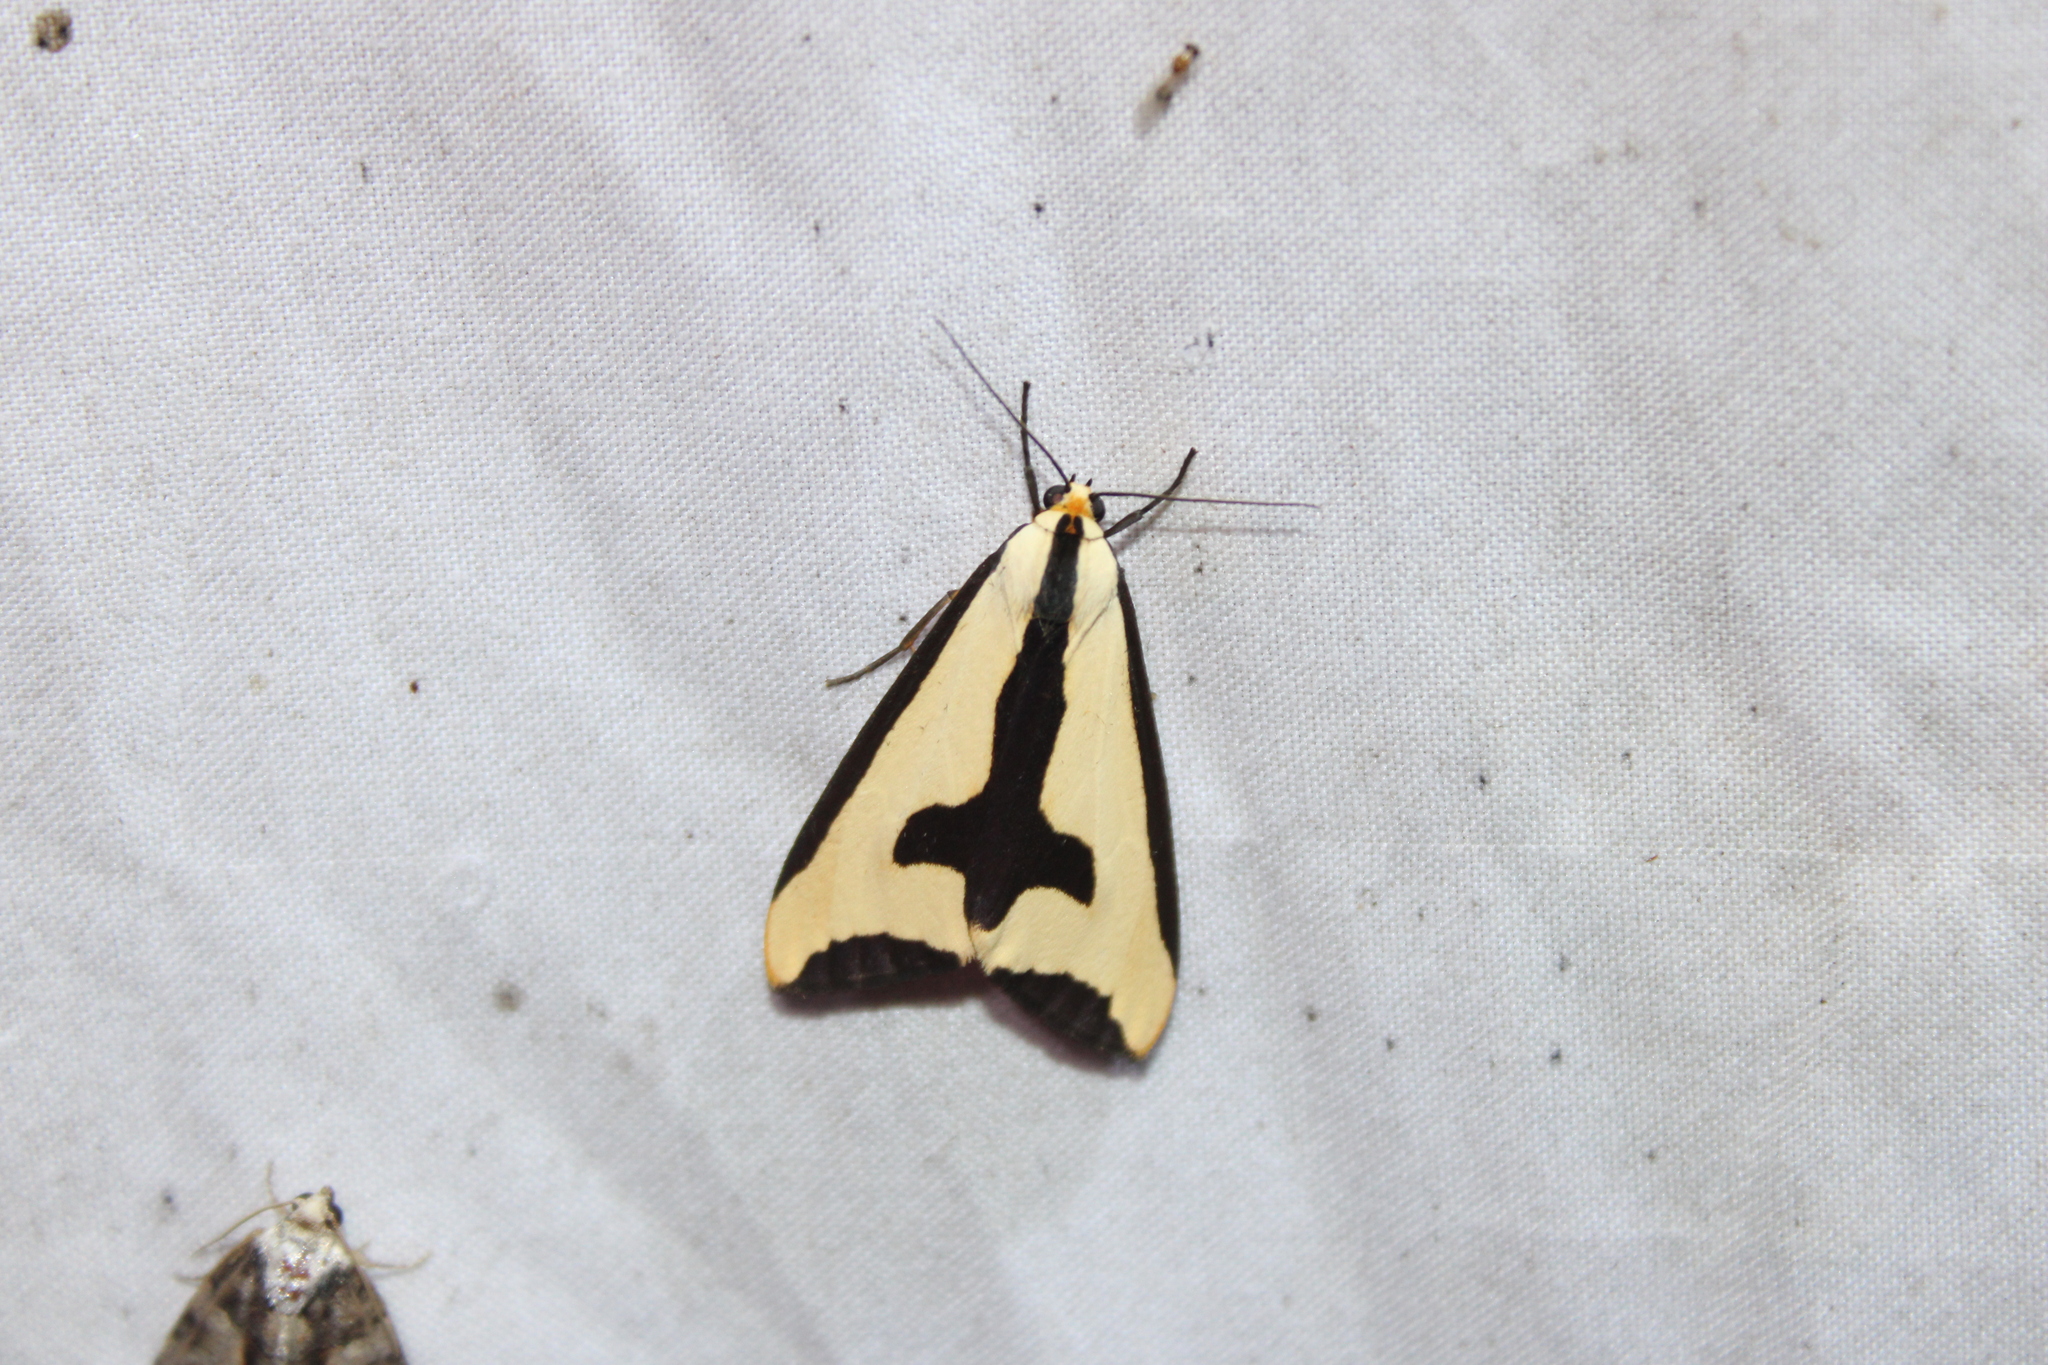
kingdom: Animalia
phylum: Arthropoda
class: Insecta
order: Lepidoptera
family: Erebidae
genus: Haploa
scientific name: Haploa clymene
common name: Clymene moth
